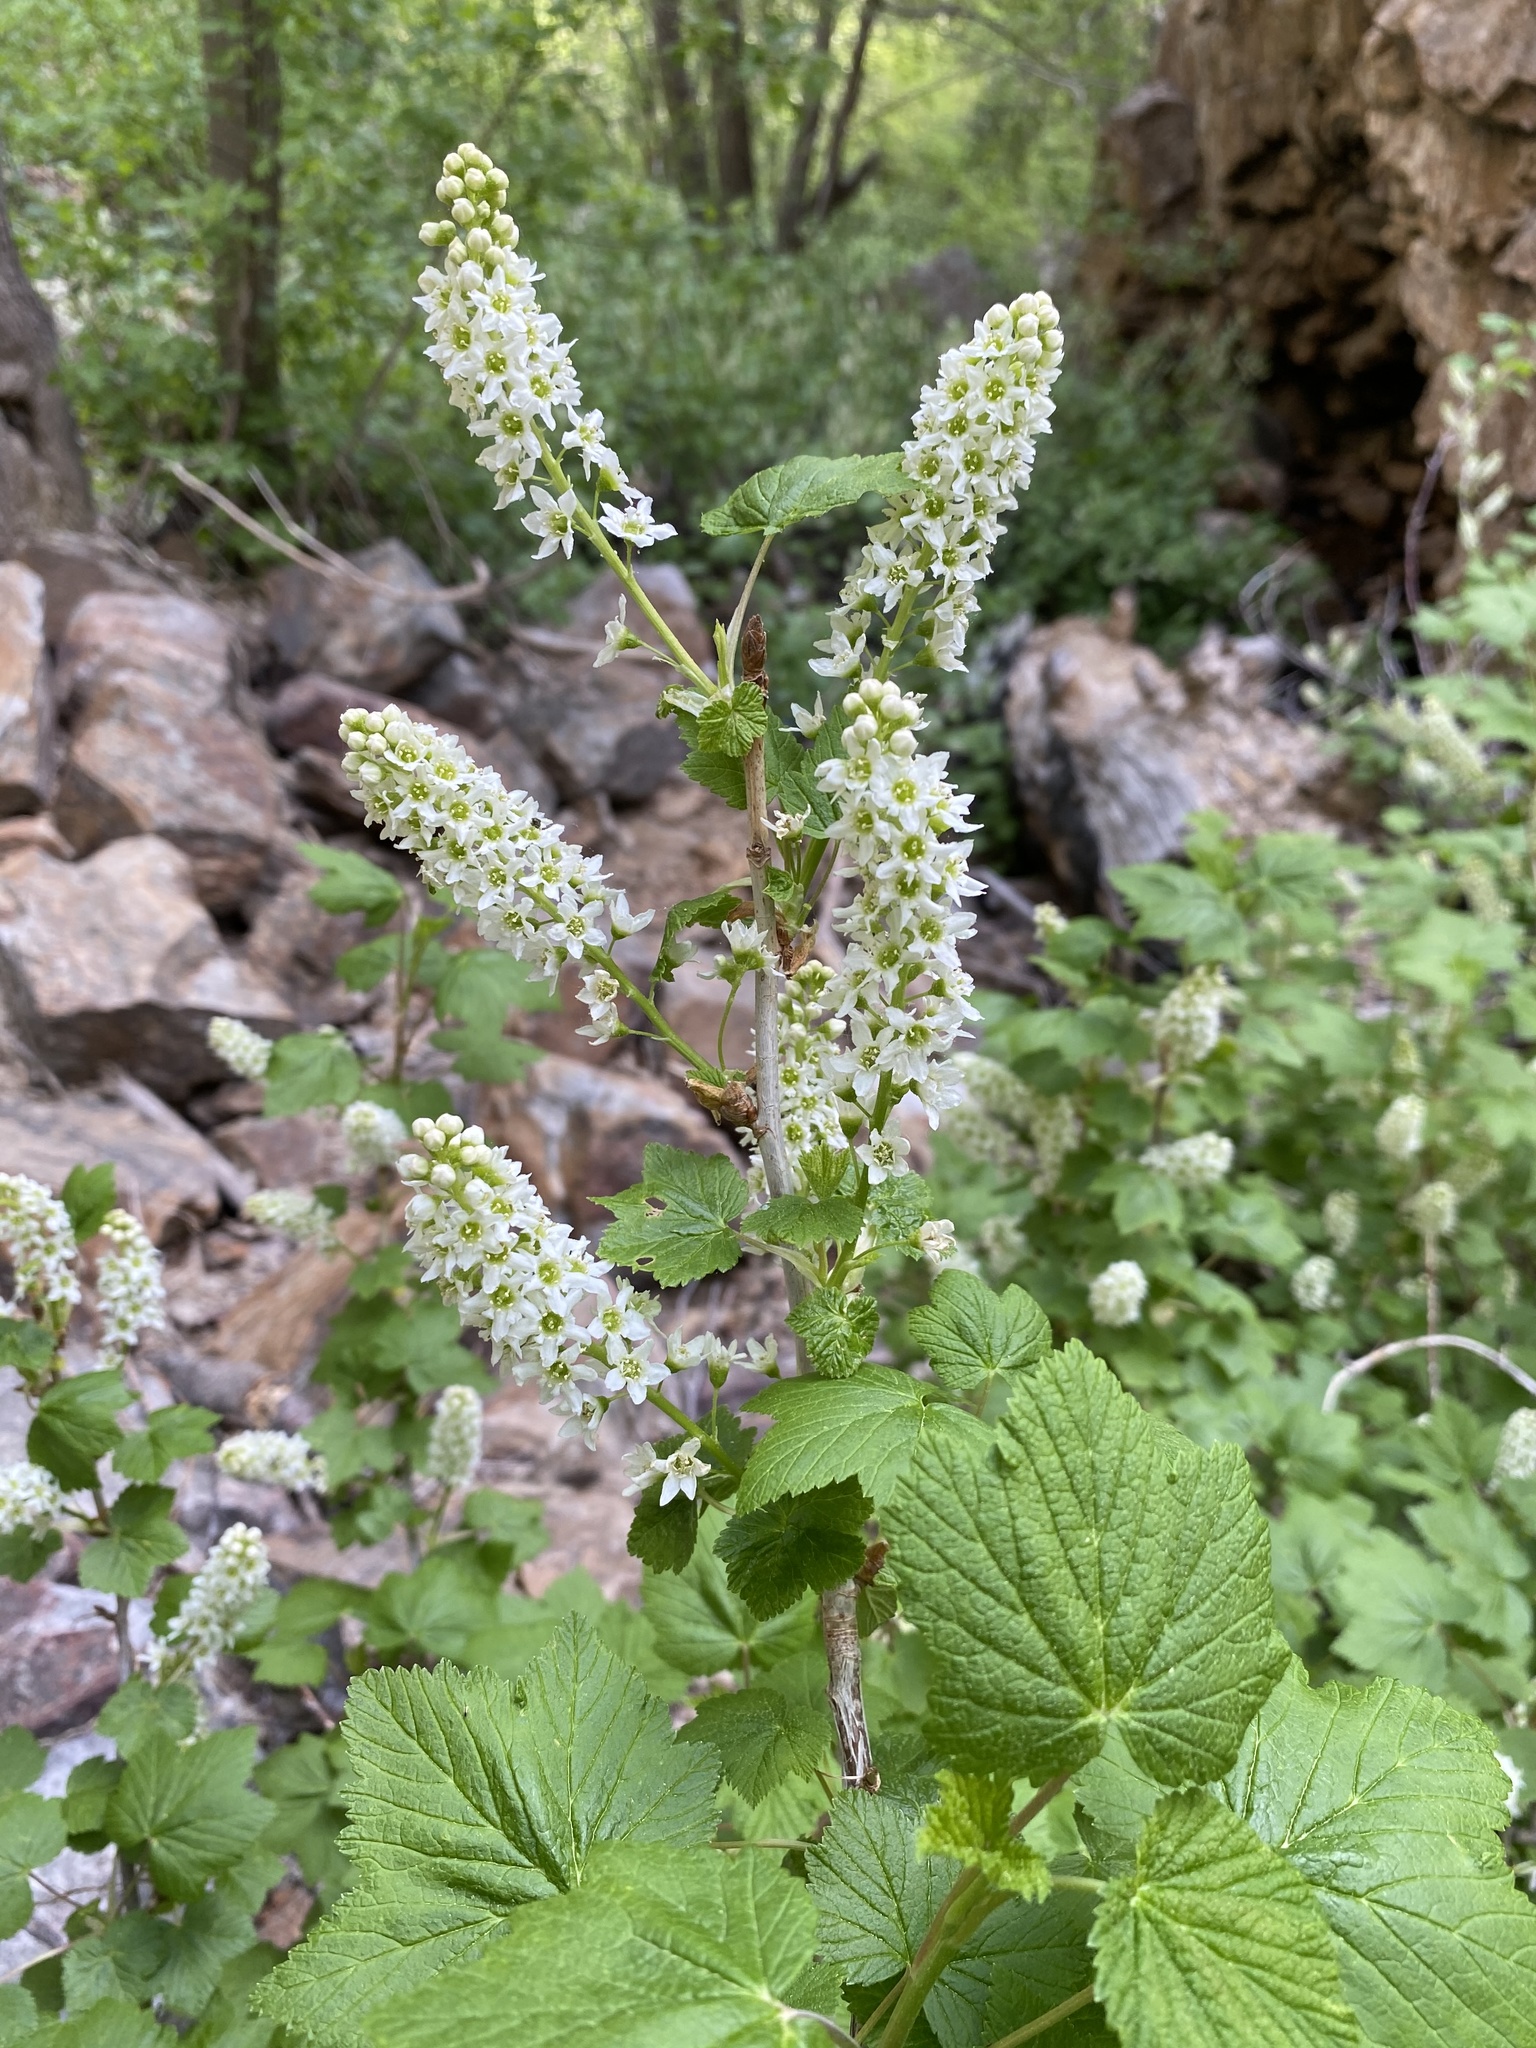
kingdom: Plantae
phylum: Tracheophyta
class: Magnoliopsida
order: Saxifragales
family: Grossulariaceae
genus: Ribes
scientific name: Ribes hudsonianum
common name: Northern black currant
